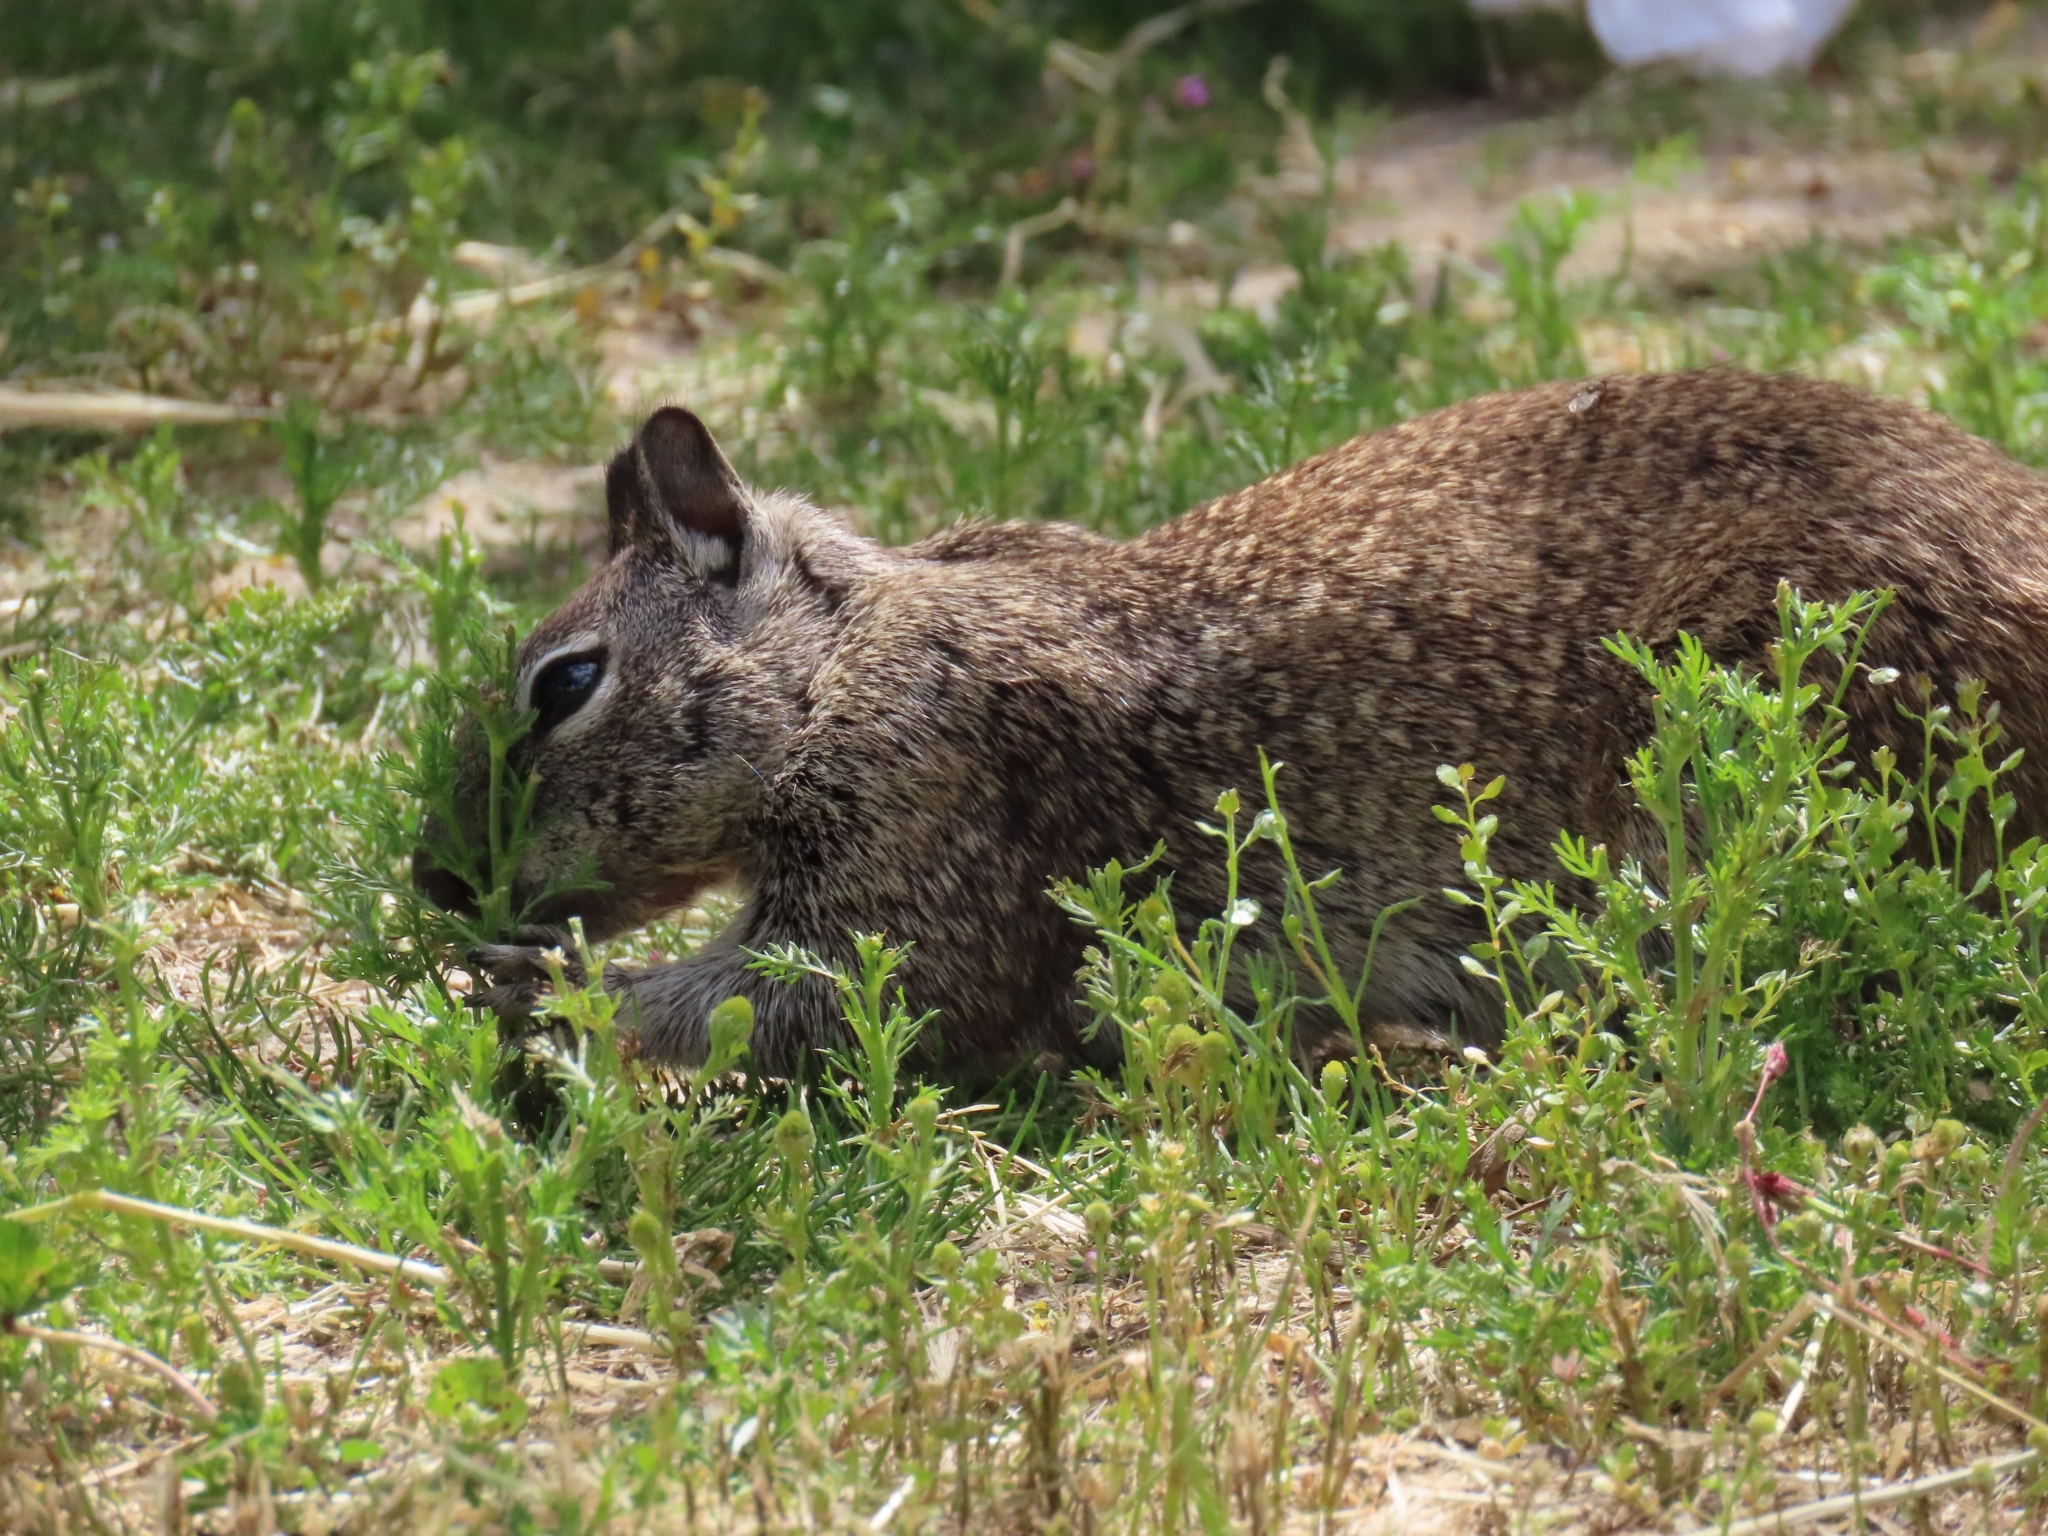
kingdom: Animalia
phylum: Chordata
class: Mammalia
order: Rodentia
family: Sciuridae
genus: Otospermophilus
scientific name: Otospermophilus beecheyi
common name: California ground squirrel
